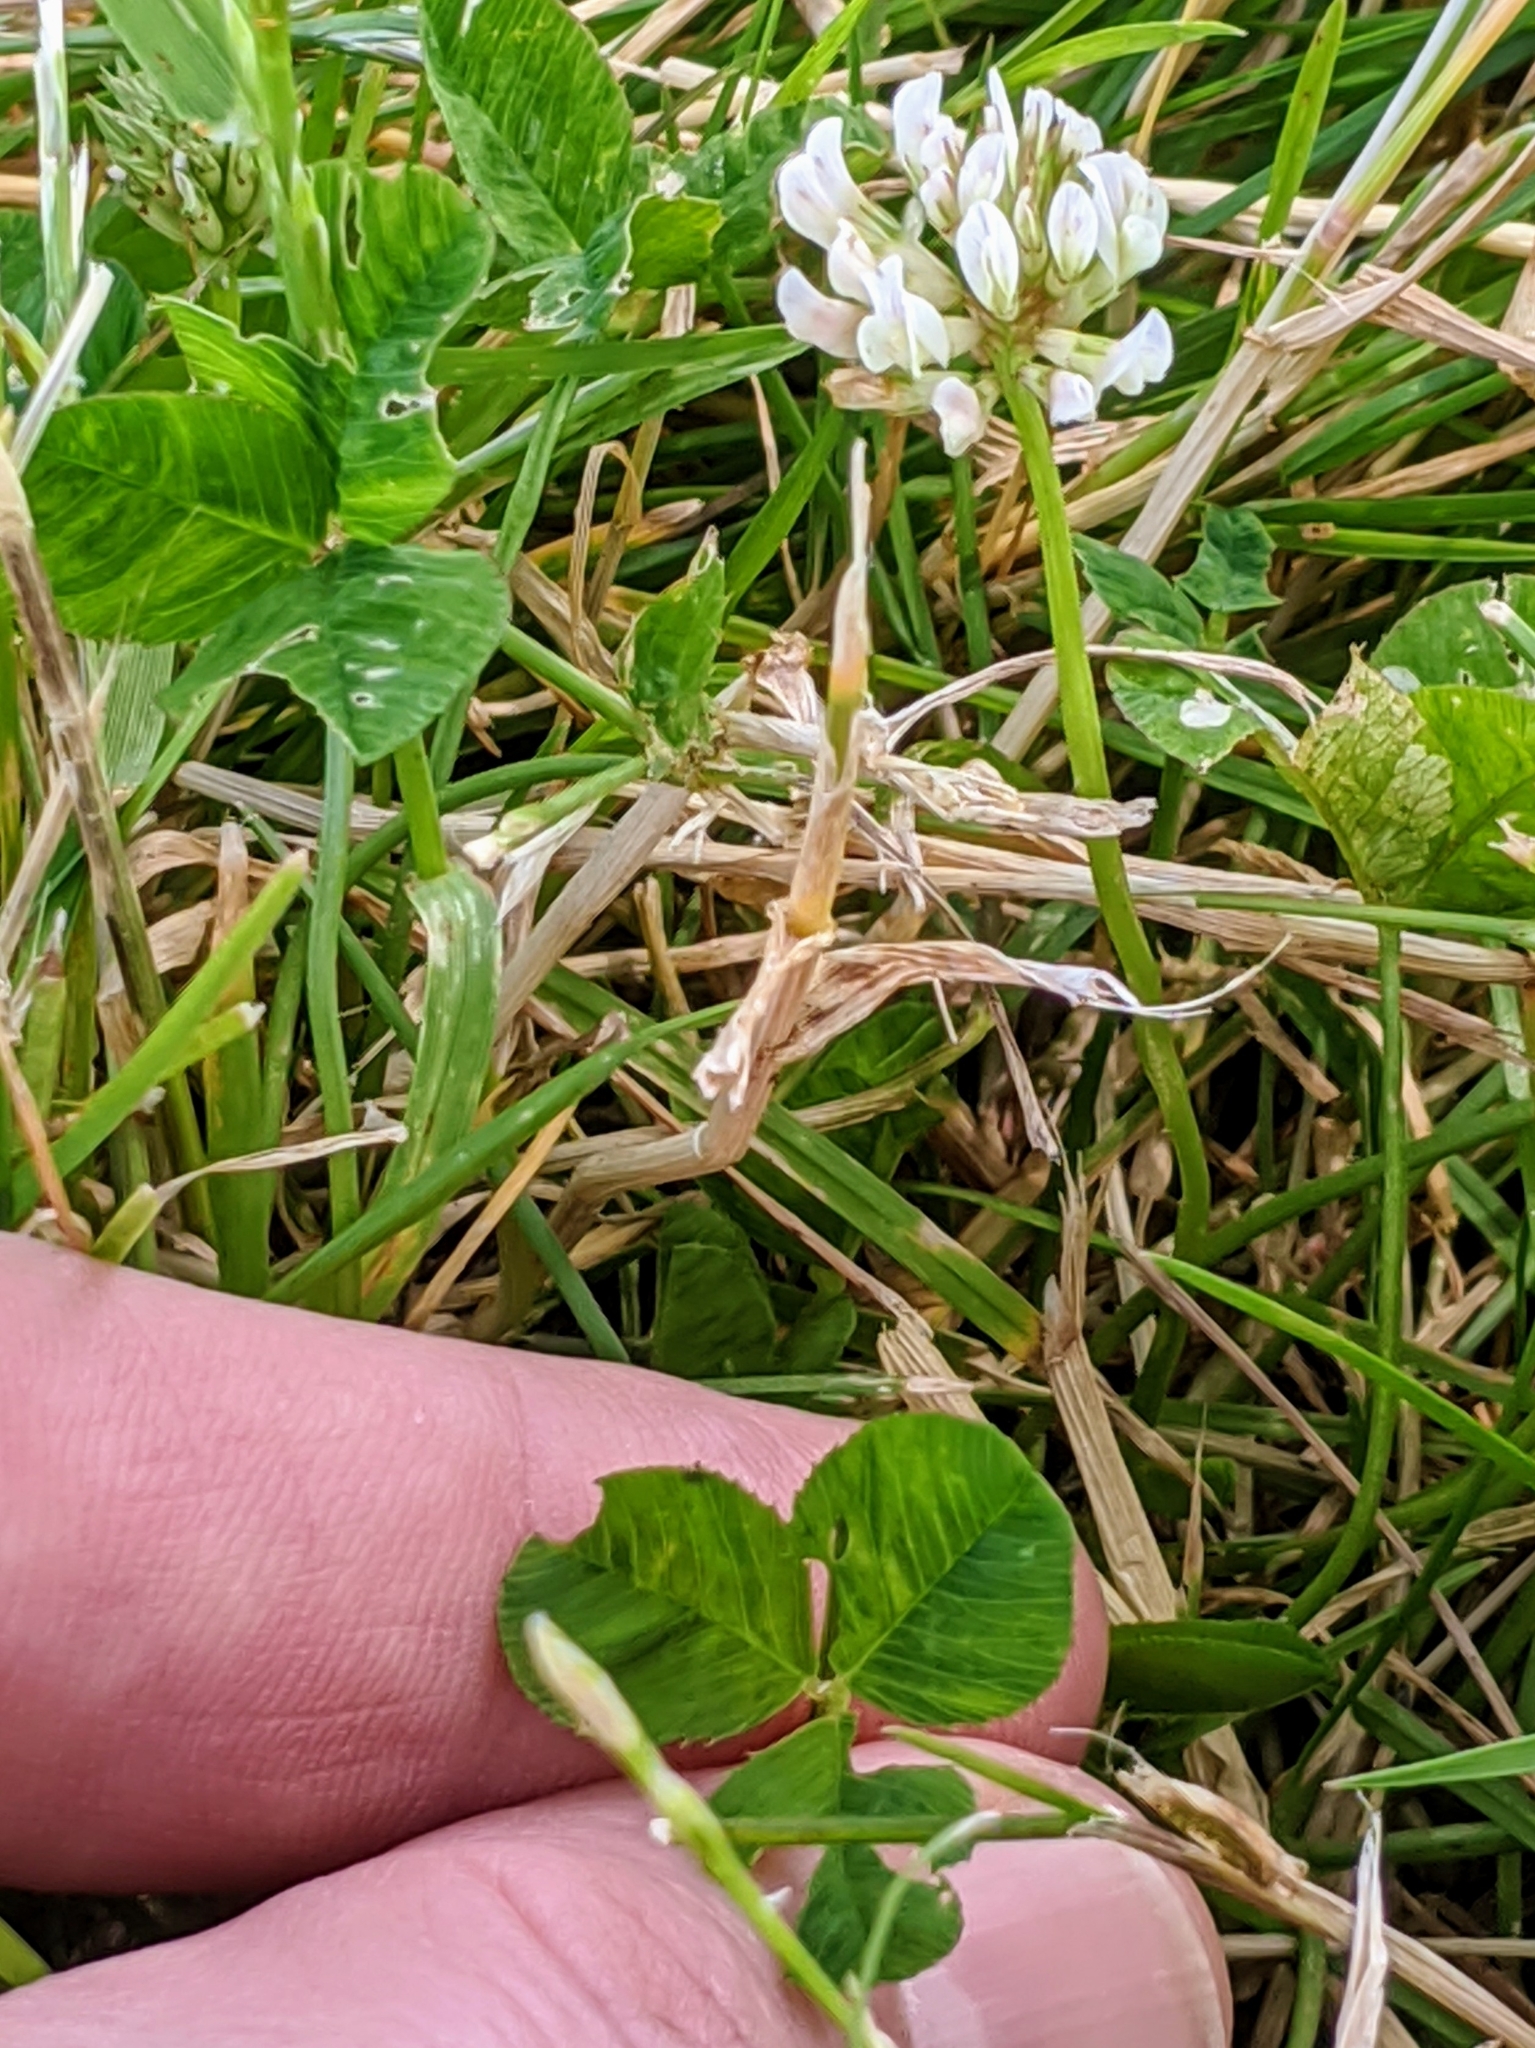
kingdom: Plantae
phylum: Tracheophyta
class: Magnoliopsida
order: Fabales
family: Fabaceae
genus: Trifolium
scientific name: Trifolium repens
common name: White clover
